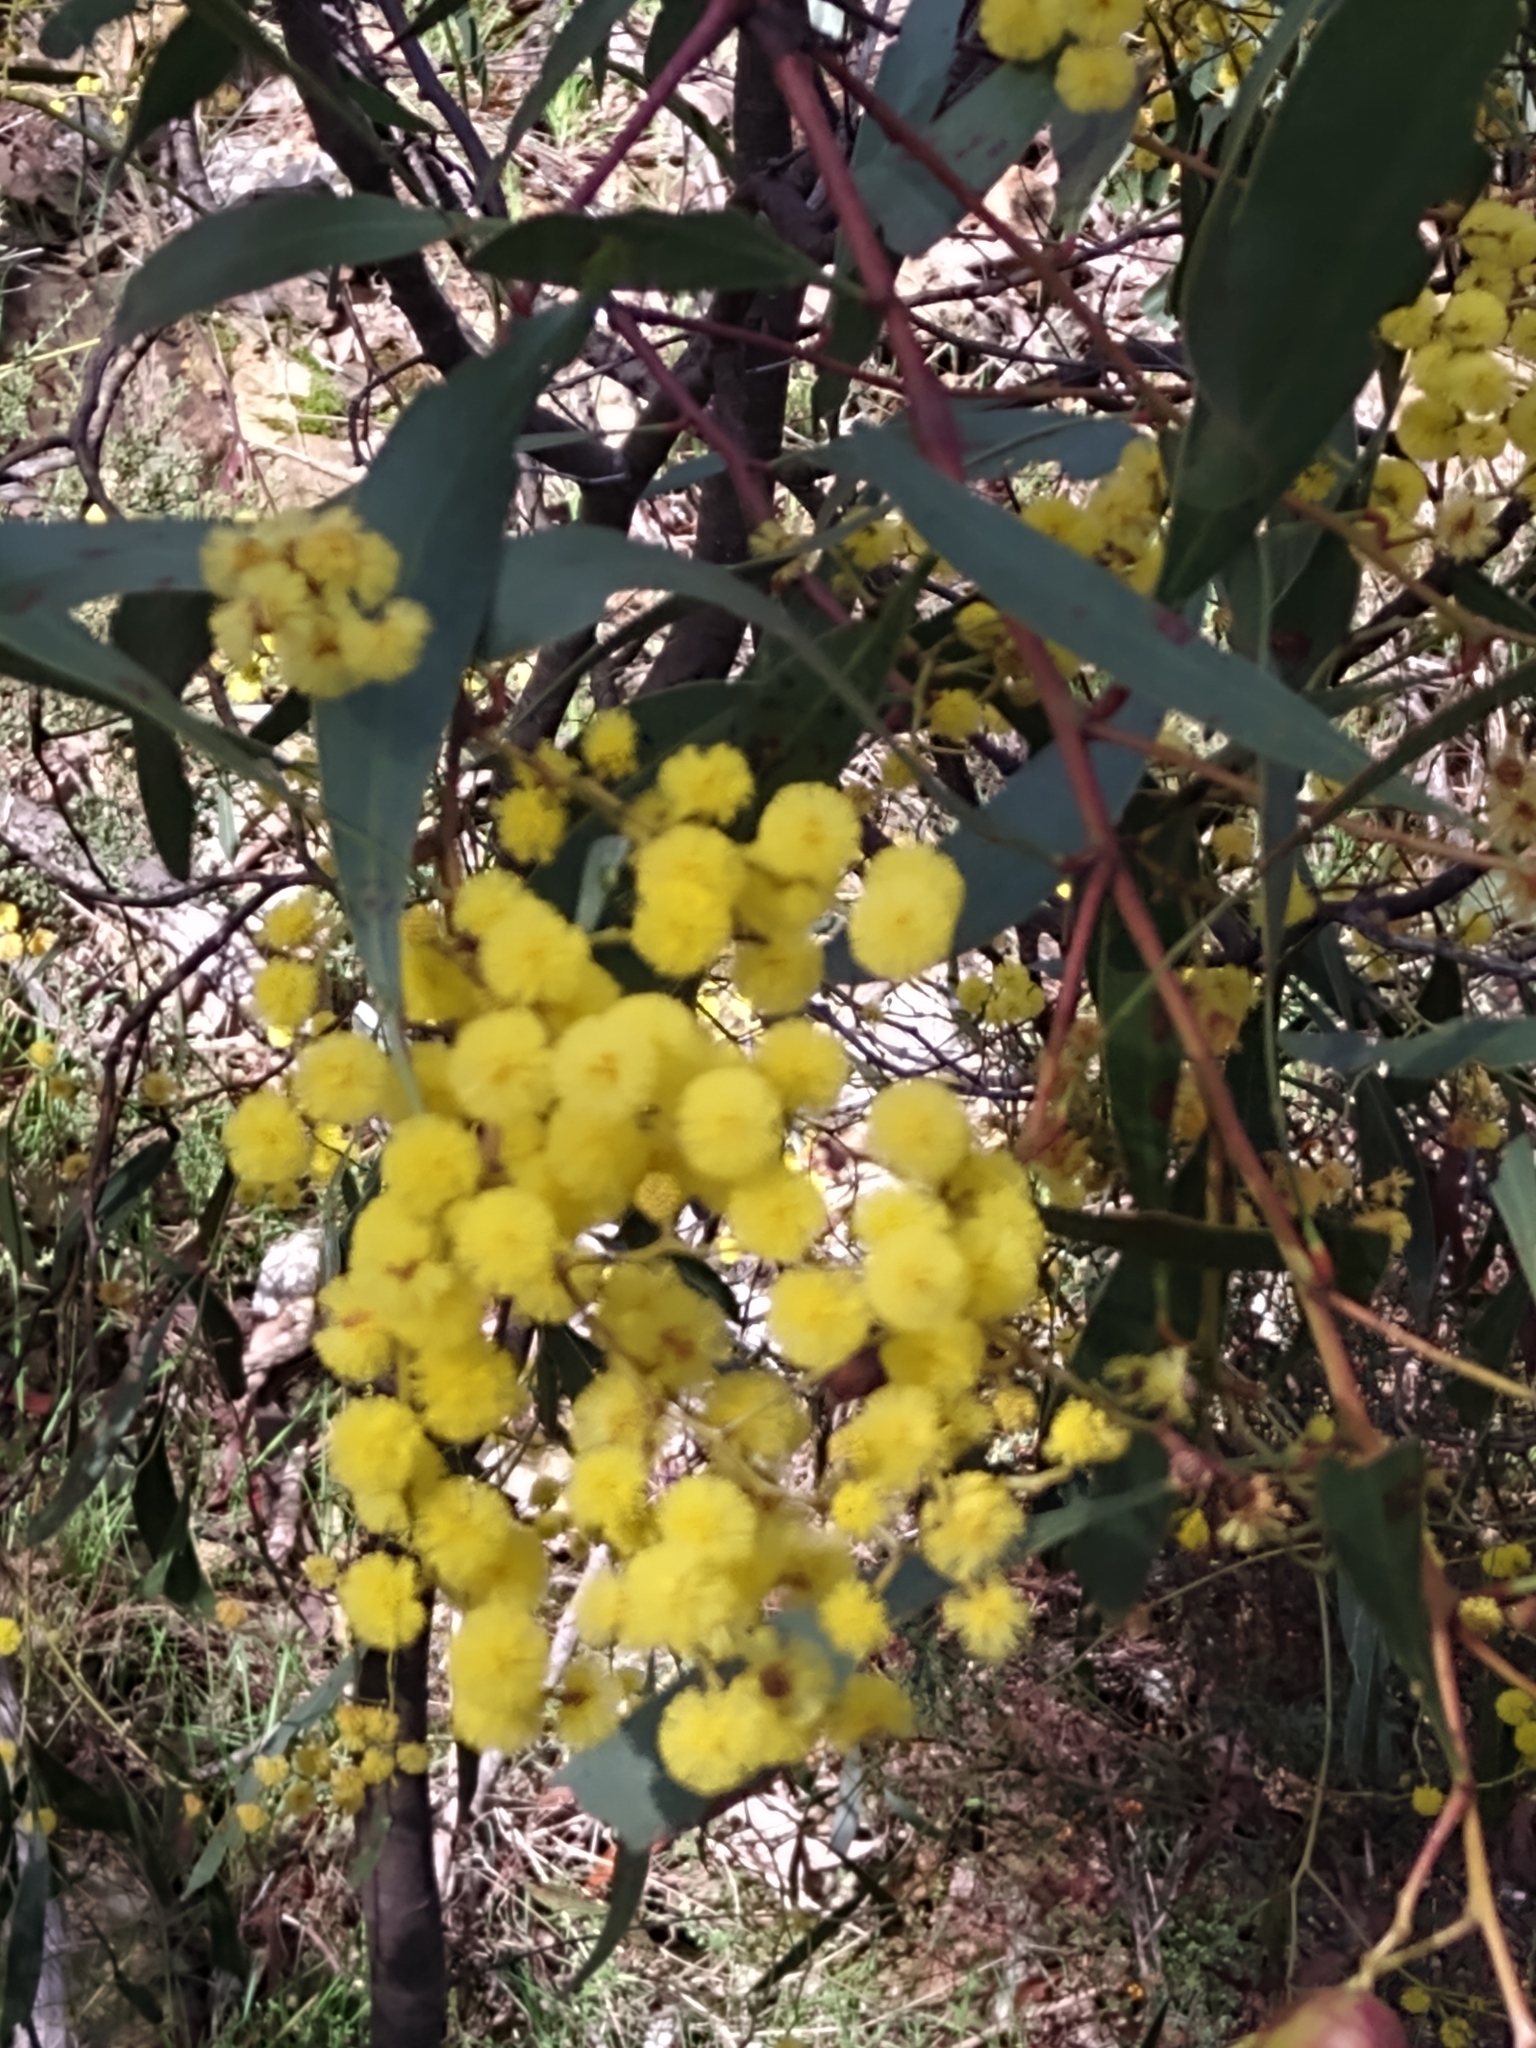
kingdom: Plantae
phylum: Tracheophyta
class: Magnoliopsida
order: Fabales
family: Fabaceae
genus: Acacia
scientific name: Acacia pycnantha
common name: Golden wattle
